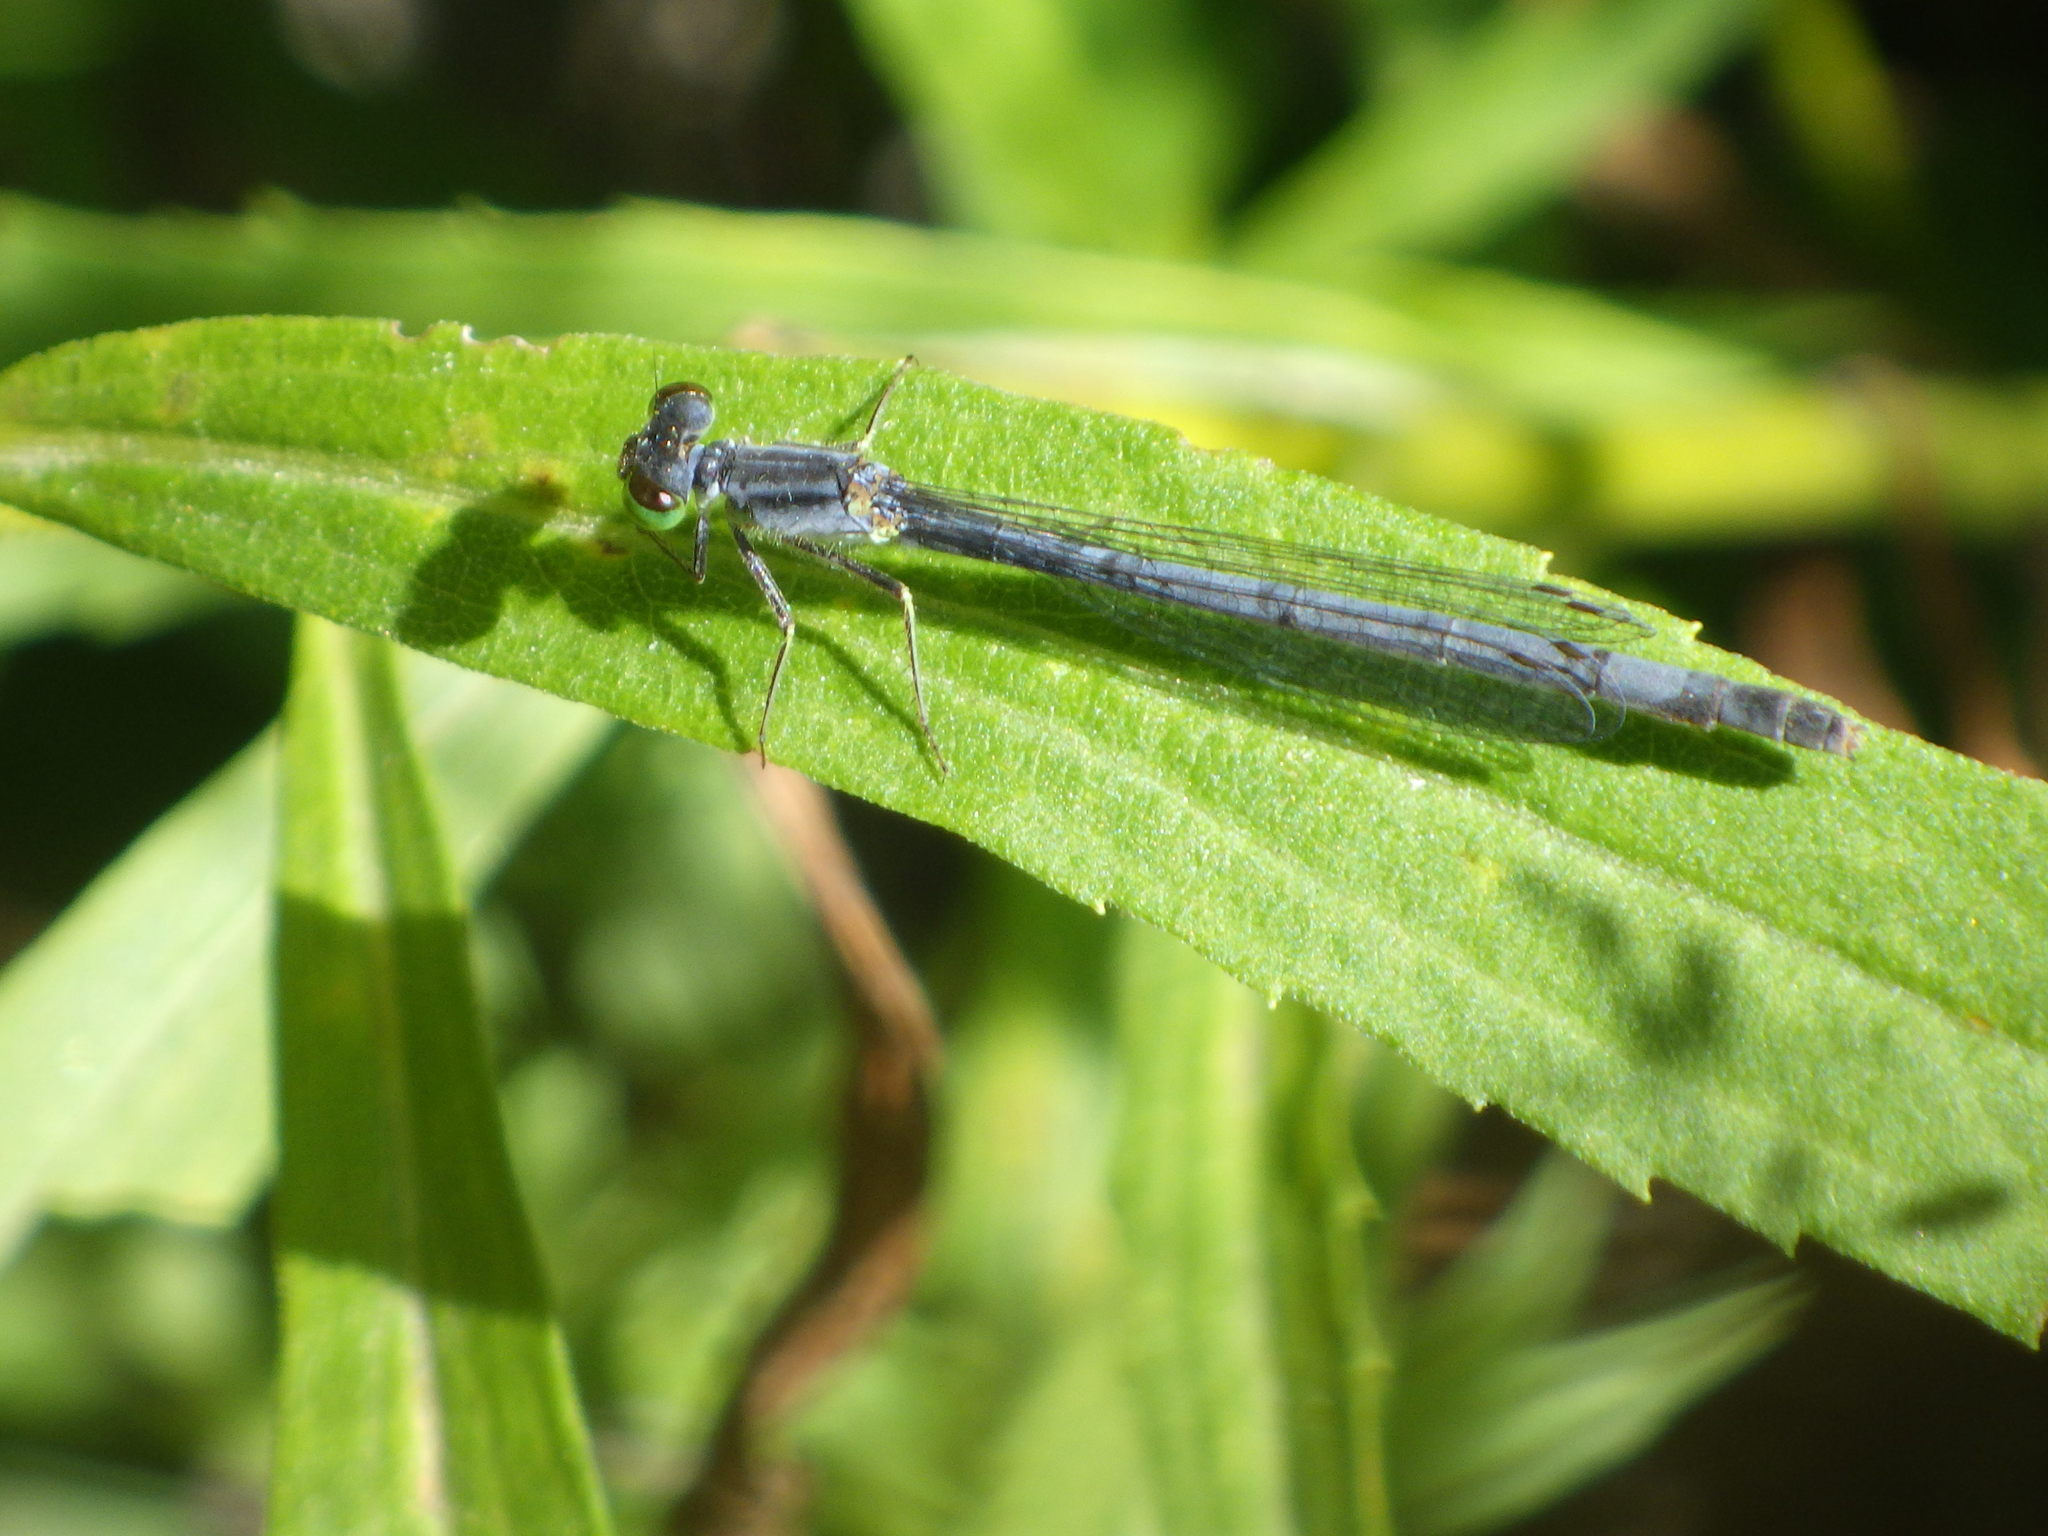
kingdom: Animalia
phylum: Arthropoda
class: Insecta
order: Odonata
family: Coenagrionidae
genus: Ischnura
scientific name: Ischnura verticalis
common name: Eastern forktail
